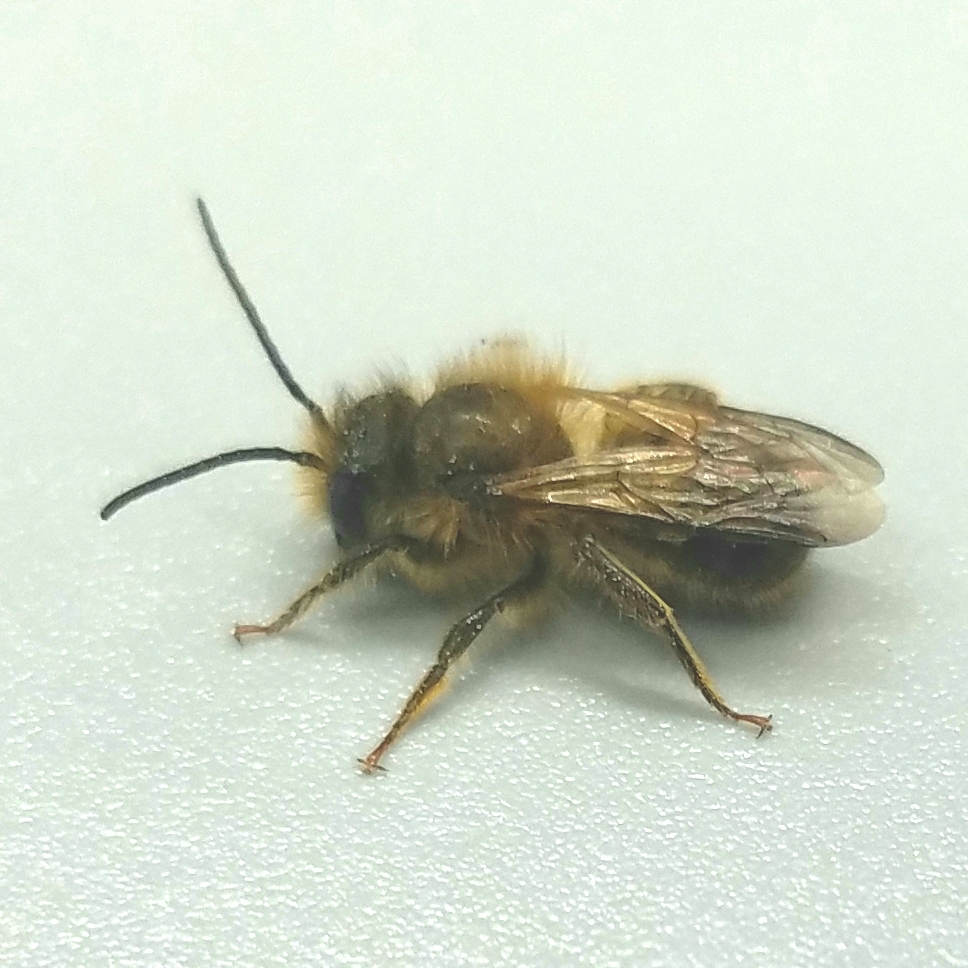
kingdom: Animalia
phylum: Arthropoda
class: Insecta
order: Hymenoptera
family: Megachilidae
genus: Osmia
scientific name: Osmia taurus
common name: Taurus mason bee
